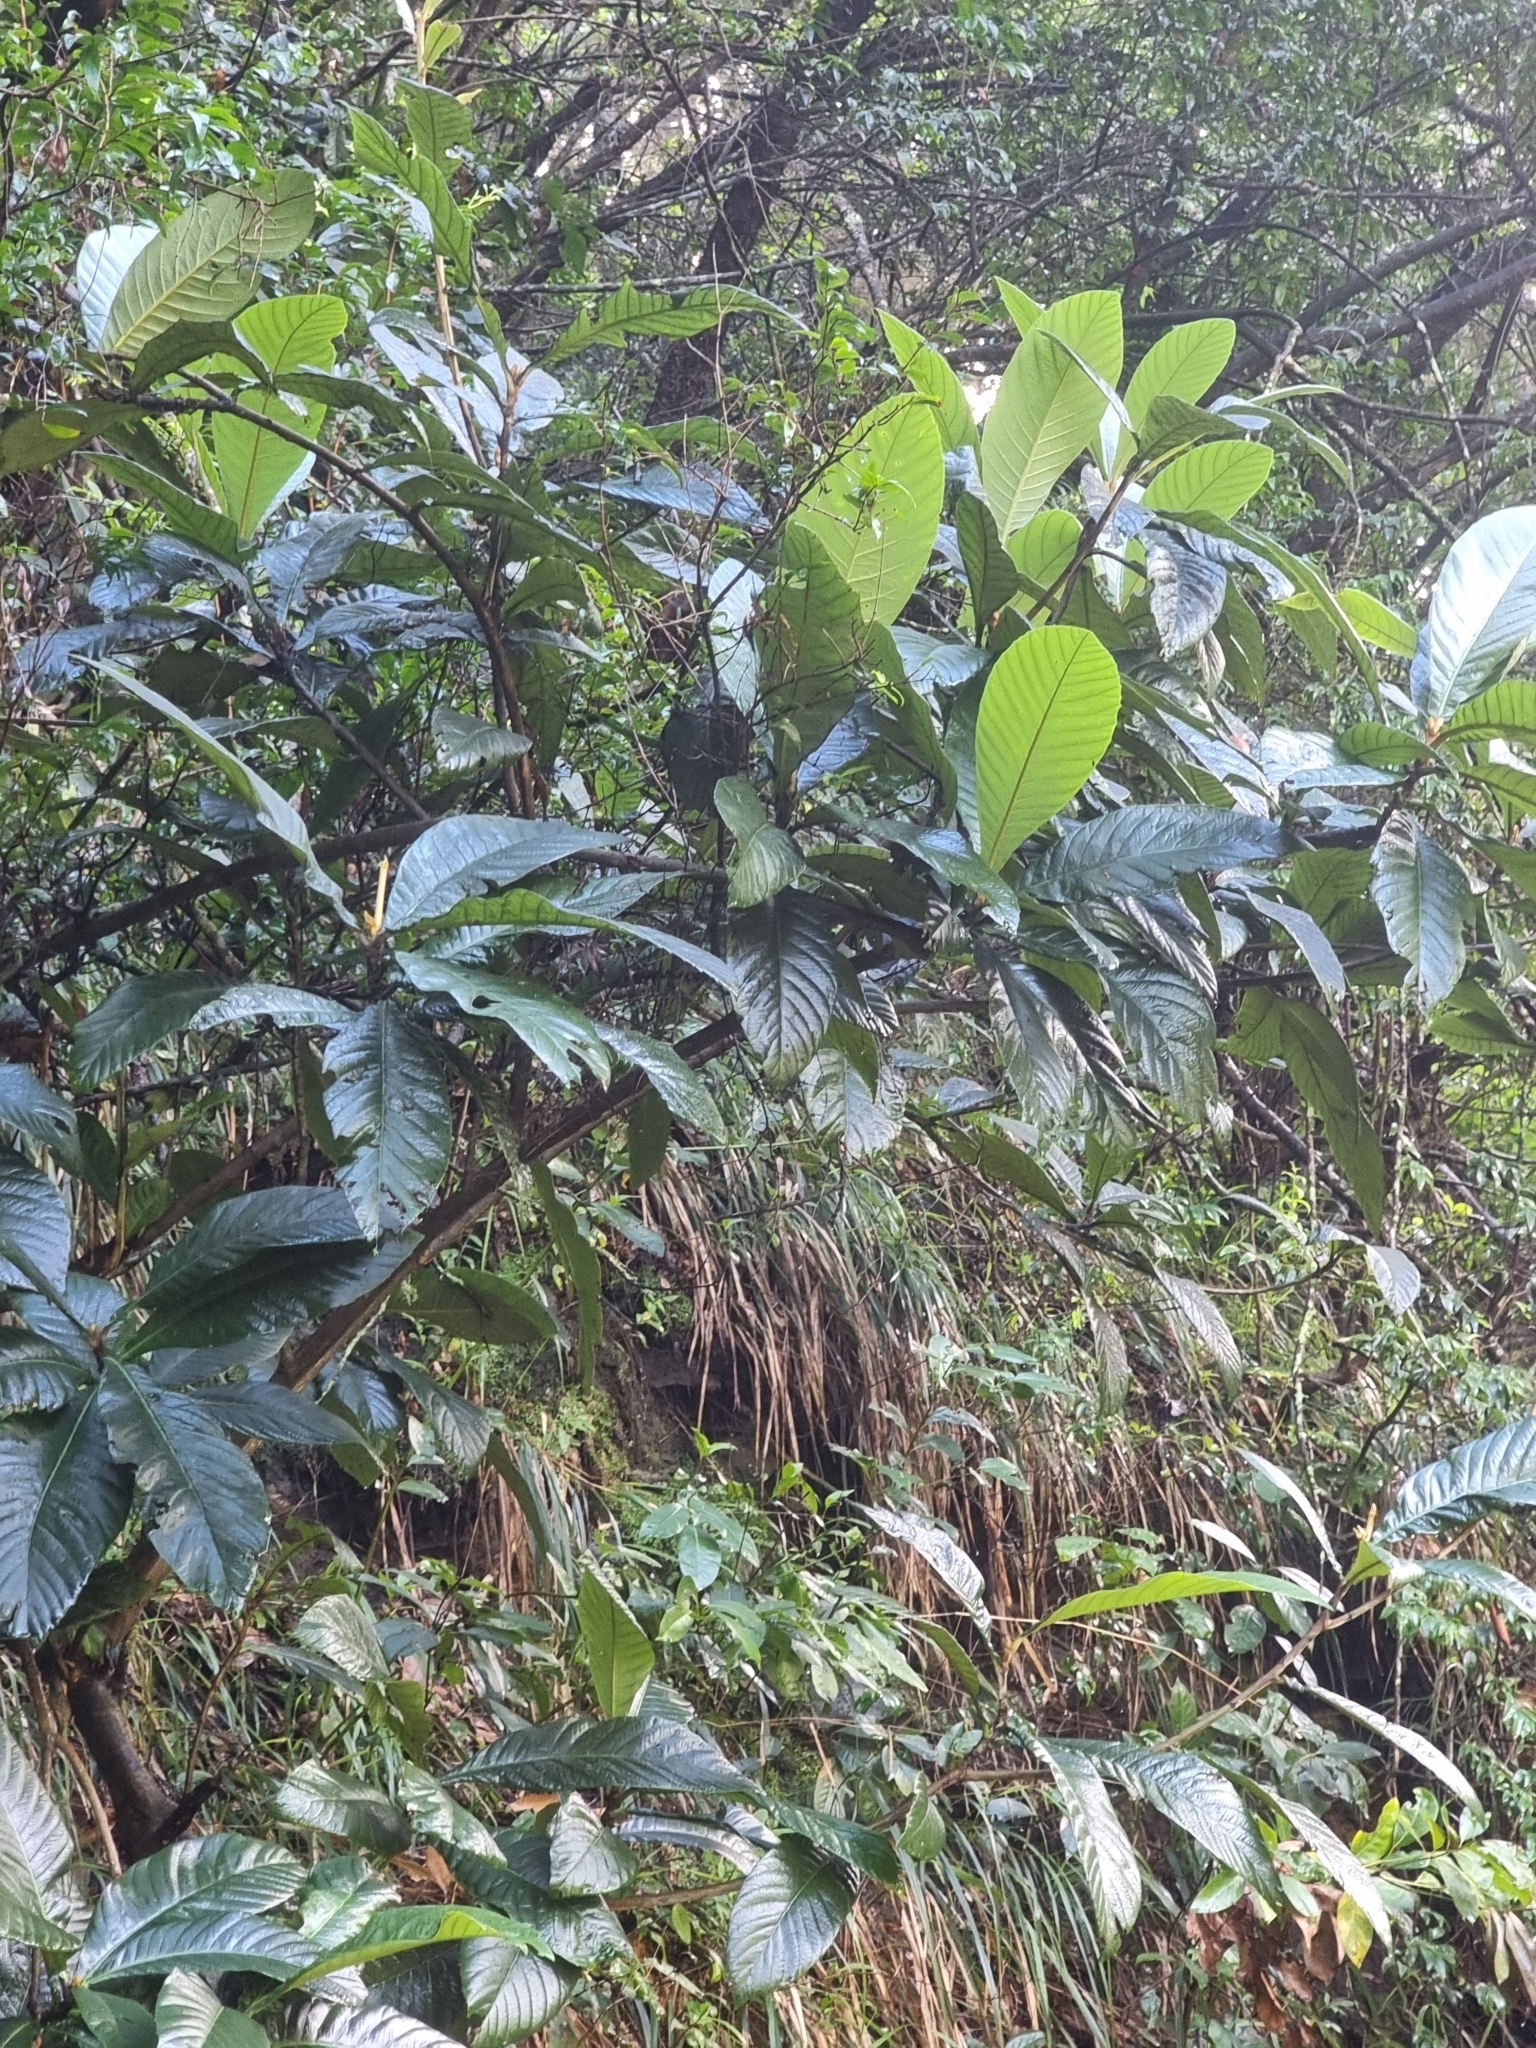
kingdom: Plantae
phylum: Tracheophyta
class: Magnoliopsida
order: Rosales
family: Rosaceae
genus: Rhaphiolepis
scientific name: Rhaphiolepis bibas
